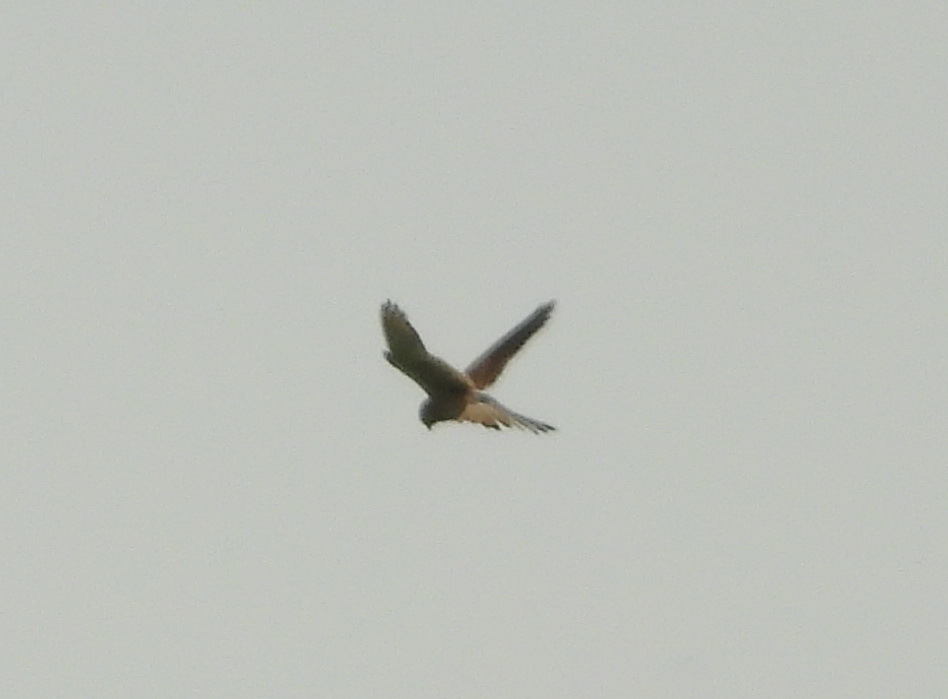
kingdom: Animalia
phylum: Chordata
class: Aves
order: Falconiformes
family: Falconidae
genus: Falco
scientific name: Falco tinnunculus
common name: Common kestrel
